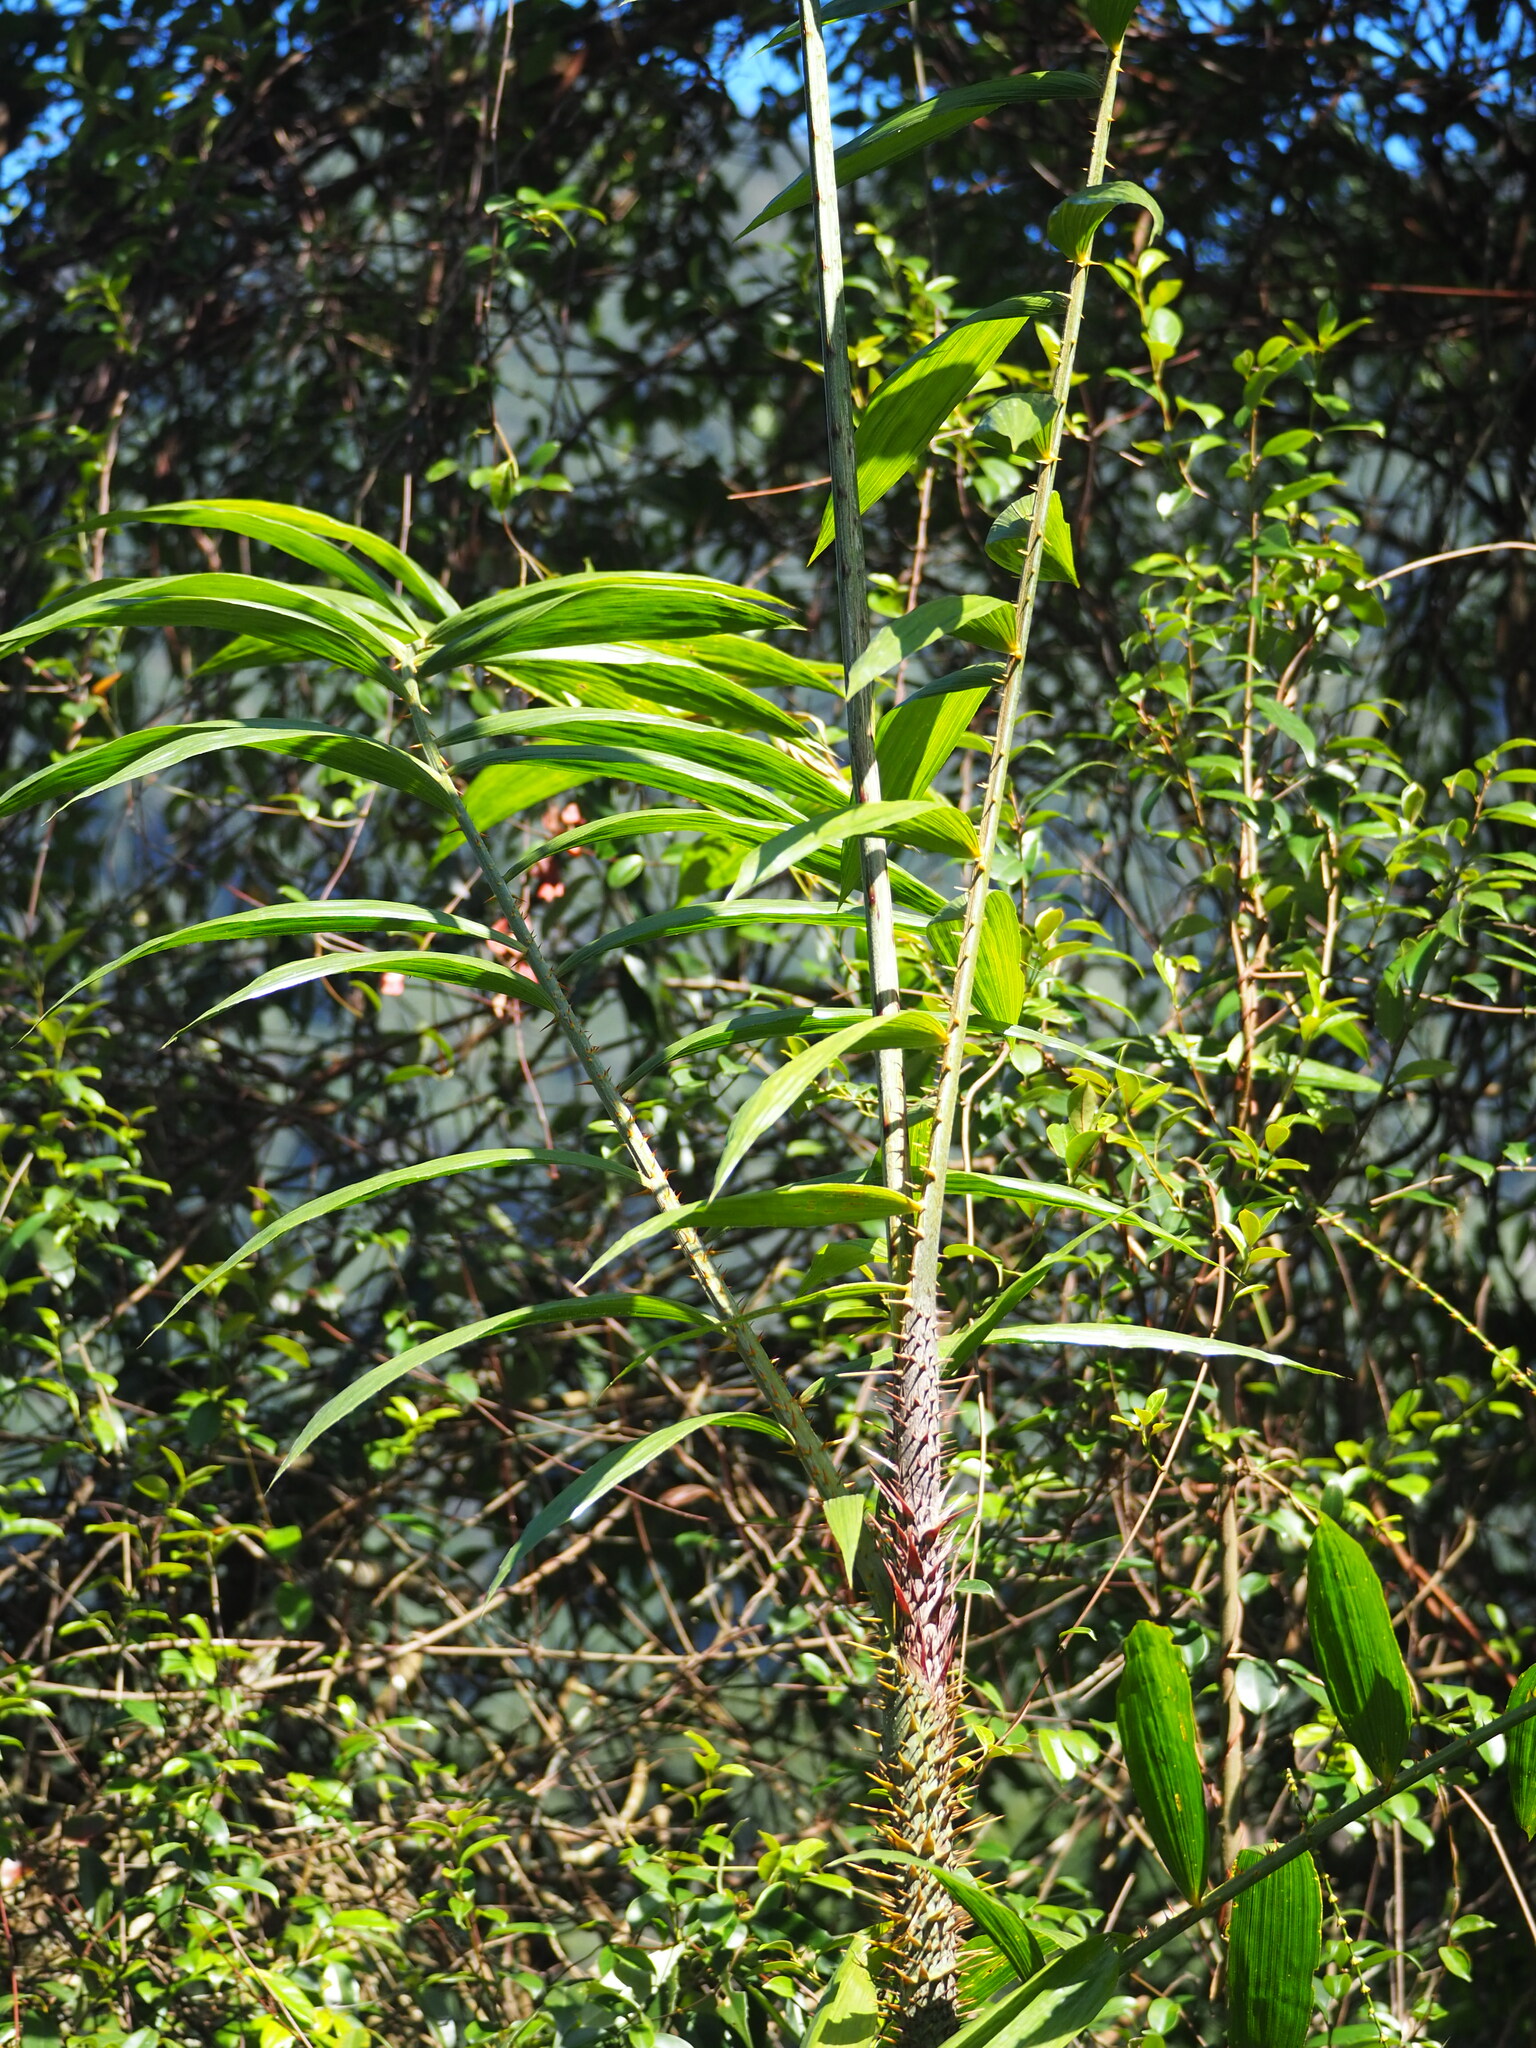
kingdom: Plantae
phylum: Tracheophyta
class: Liliopsida
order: Arecales
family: Arecaceae
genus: Calamus
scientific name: Calamus formosanus
